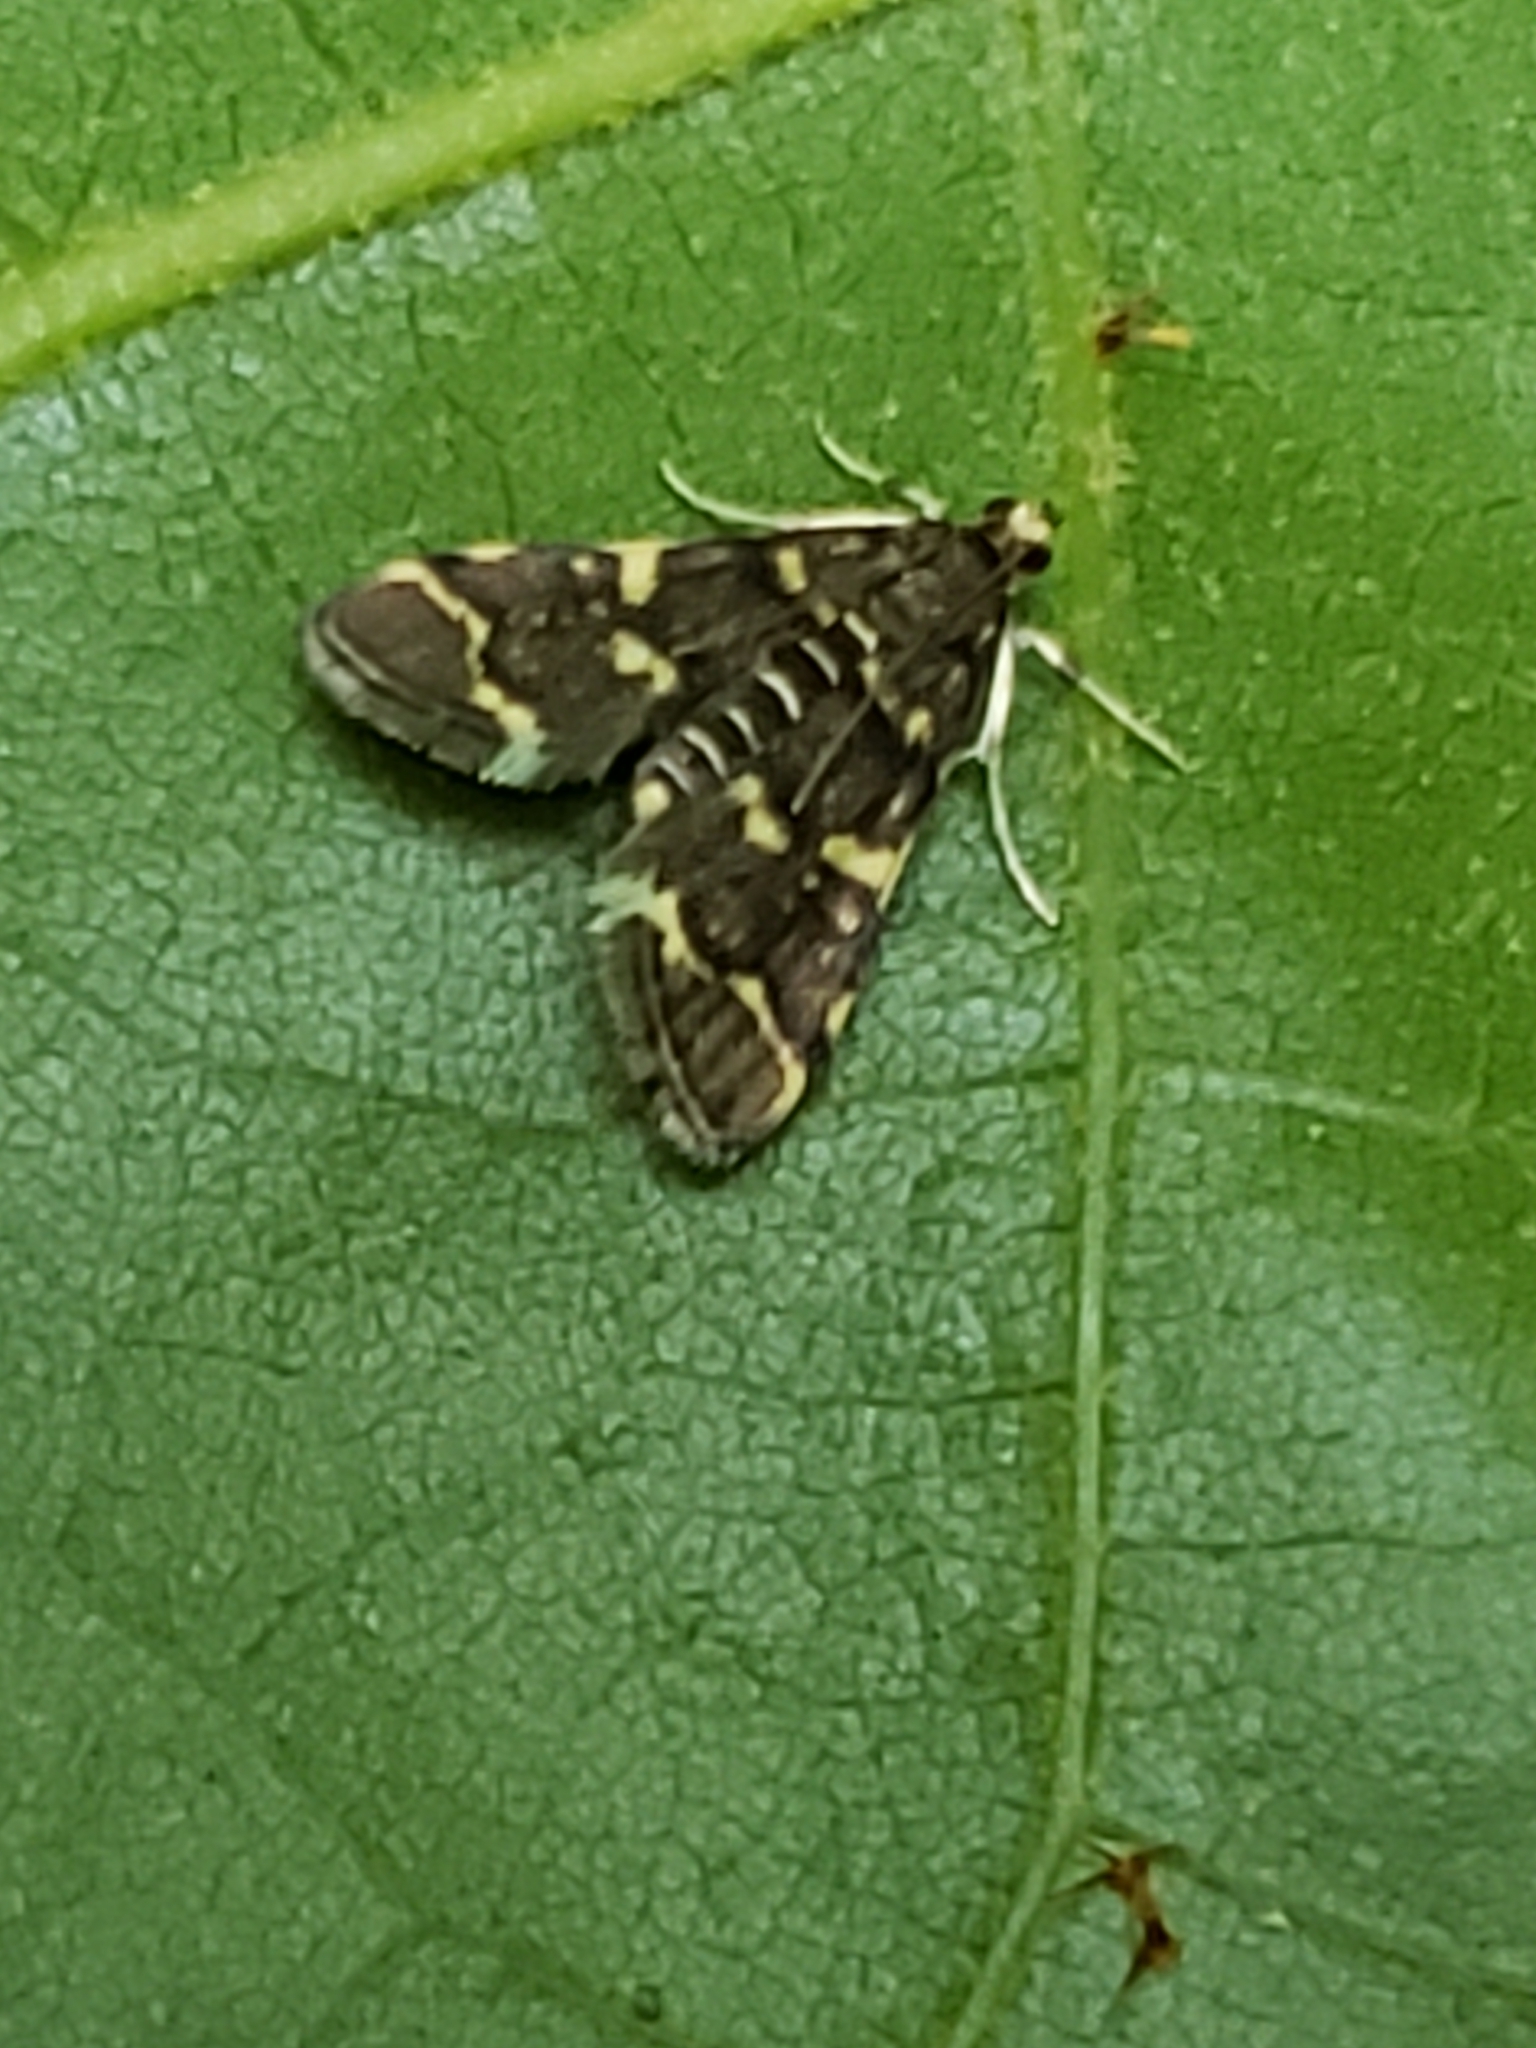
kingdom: Animalia
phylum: Arthropoda
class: Insecta
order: Lepidoptera
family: Crambidae
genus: Anageshna
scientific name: Anageshna primordialis
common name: Yellow-spotted webworm moth
